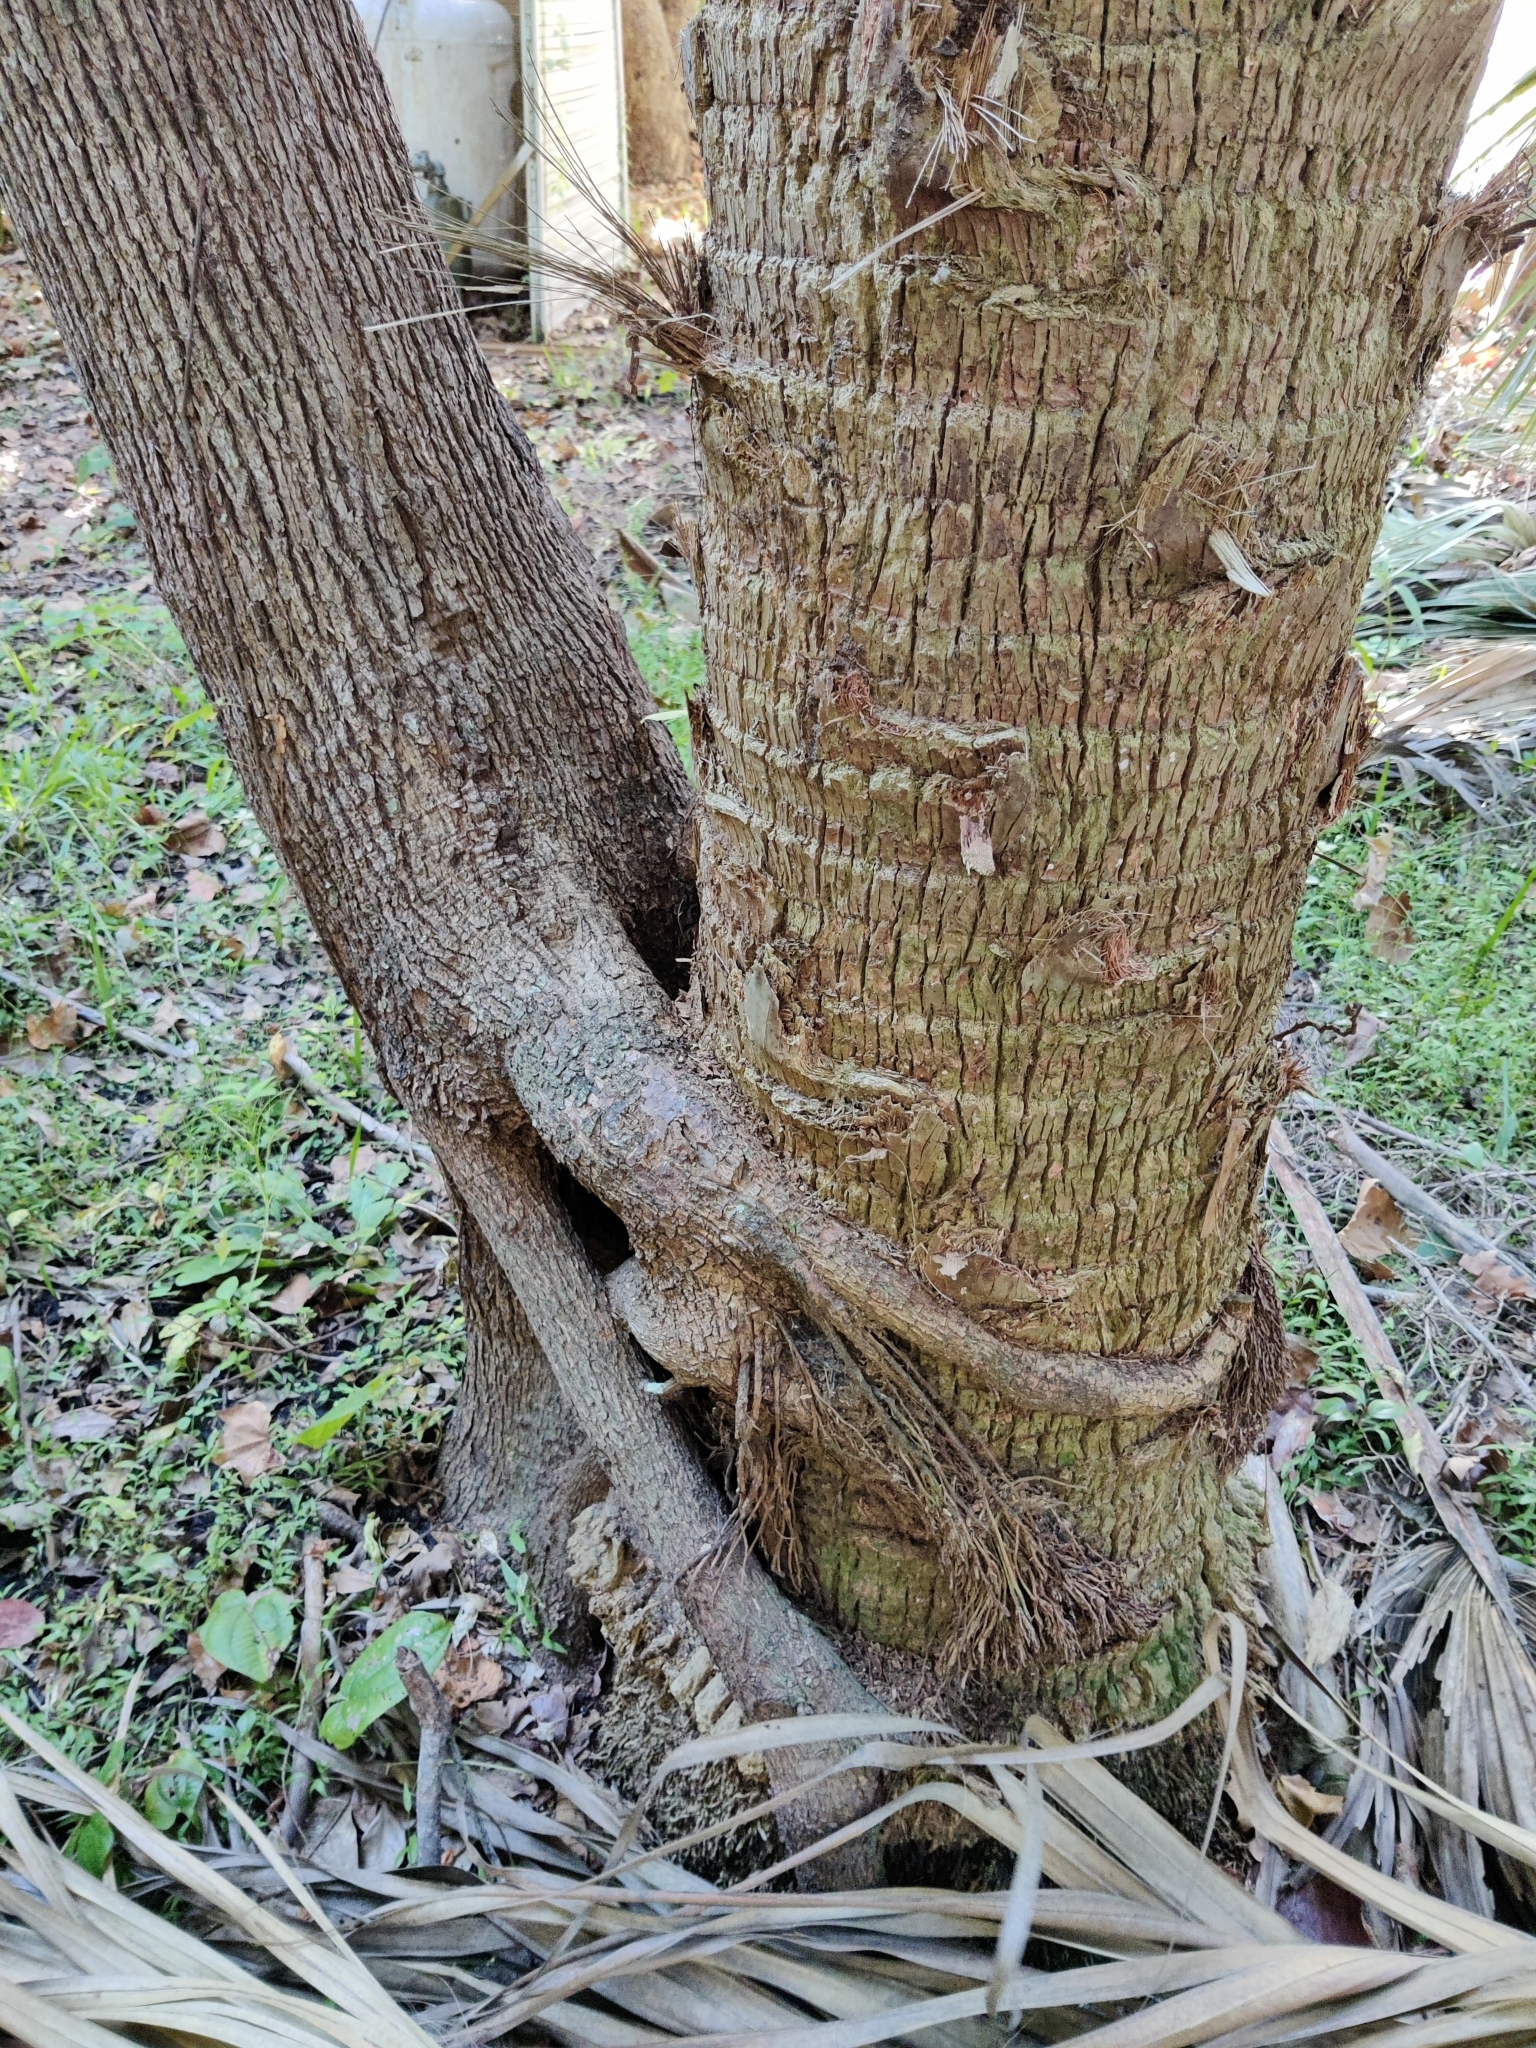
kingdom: Plantae
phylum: Tracheophyta
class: Liliopsida
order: Arecales
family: Arecaceae
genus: Sabal
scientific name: Sabal palmetto
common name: Blue palmetto
